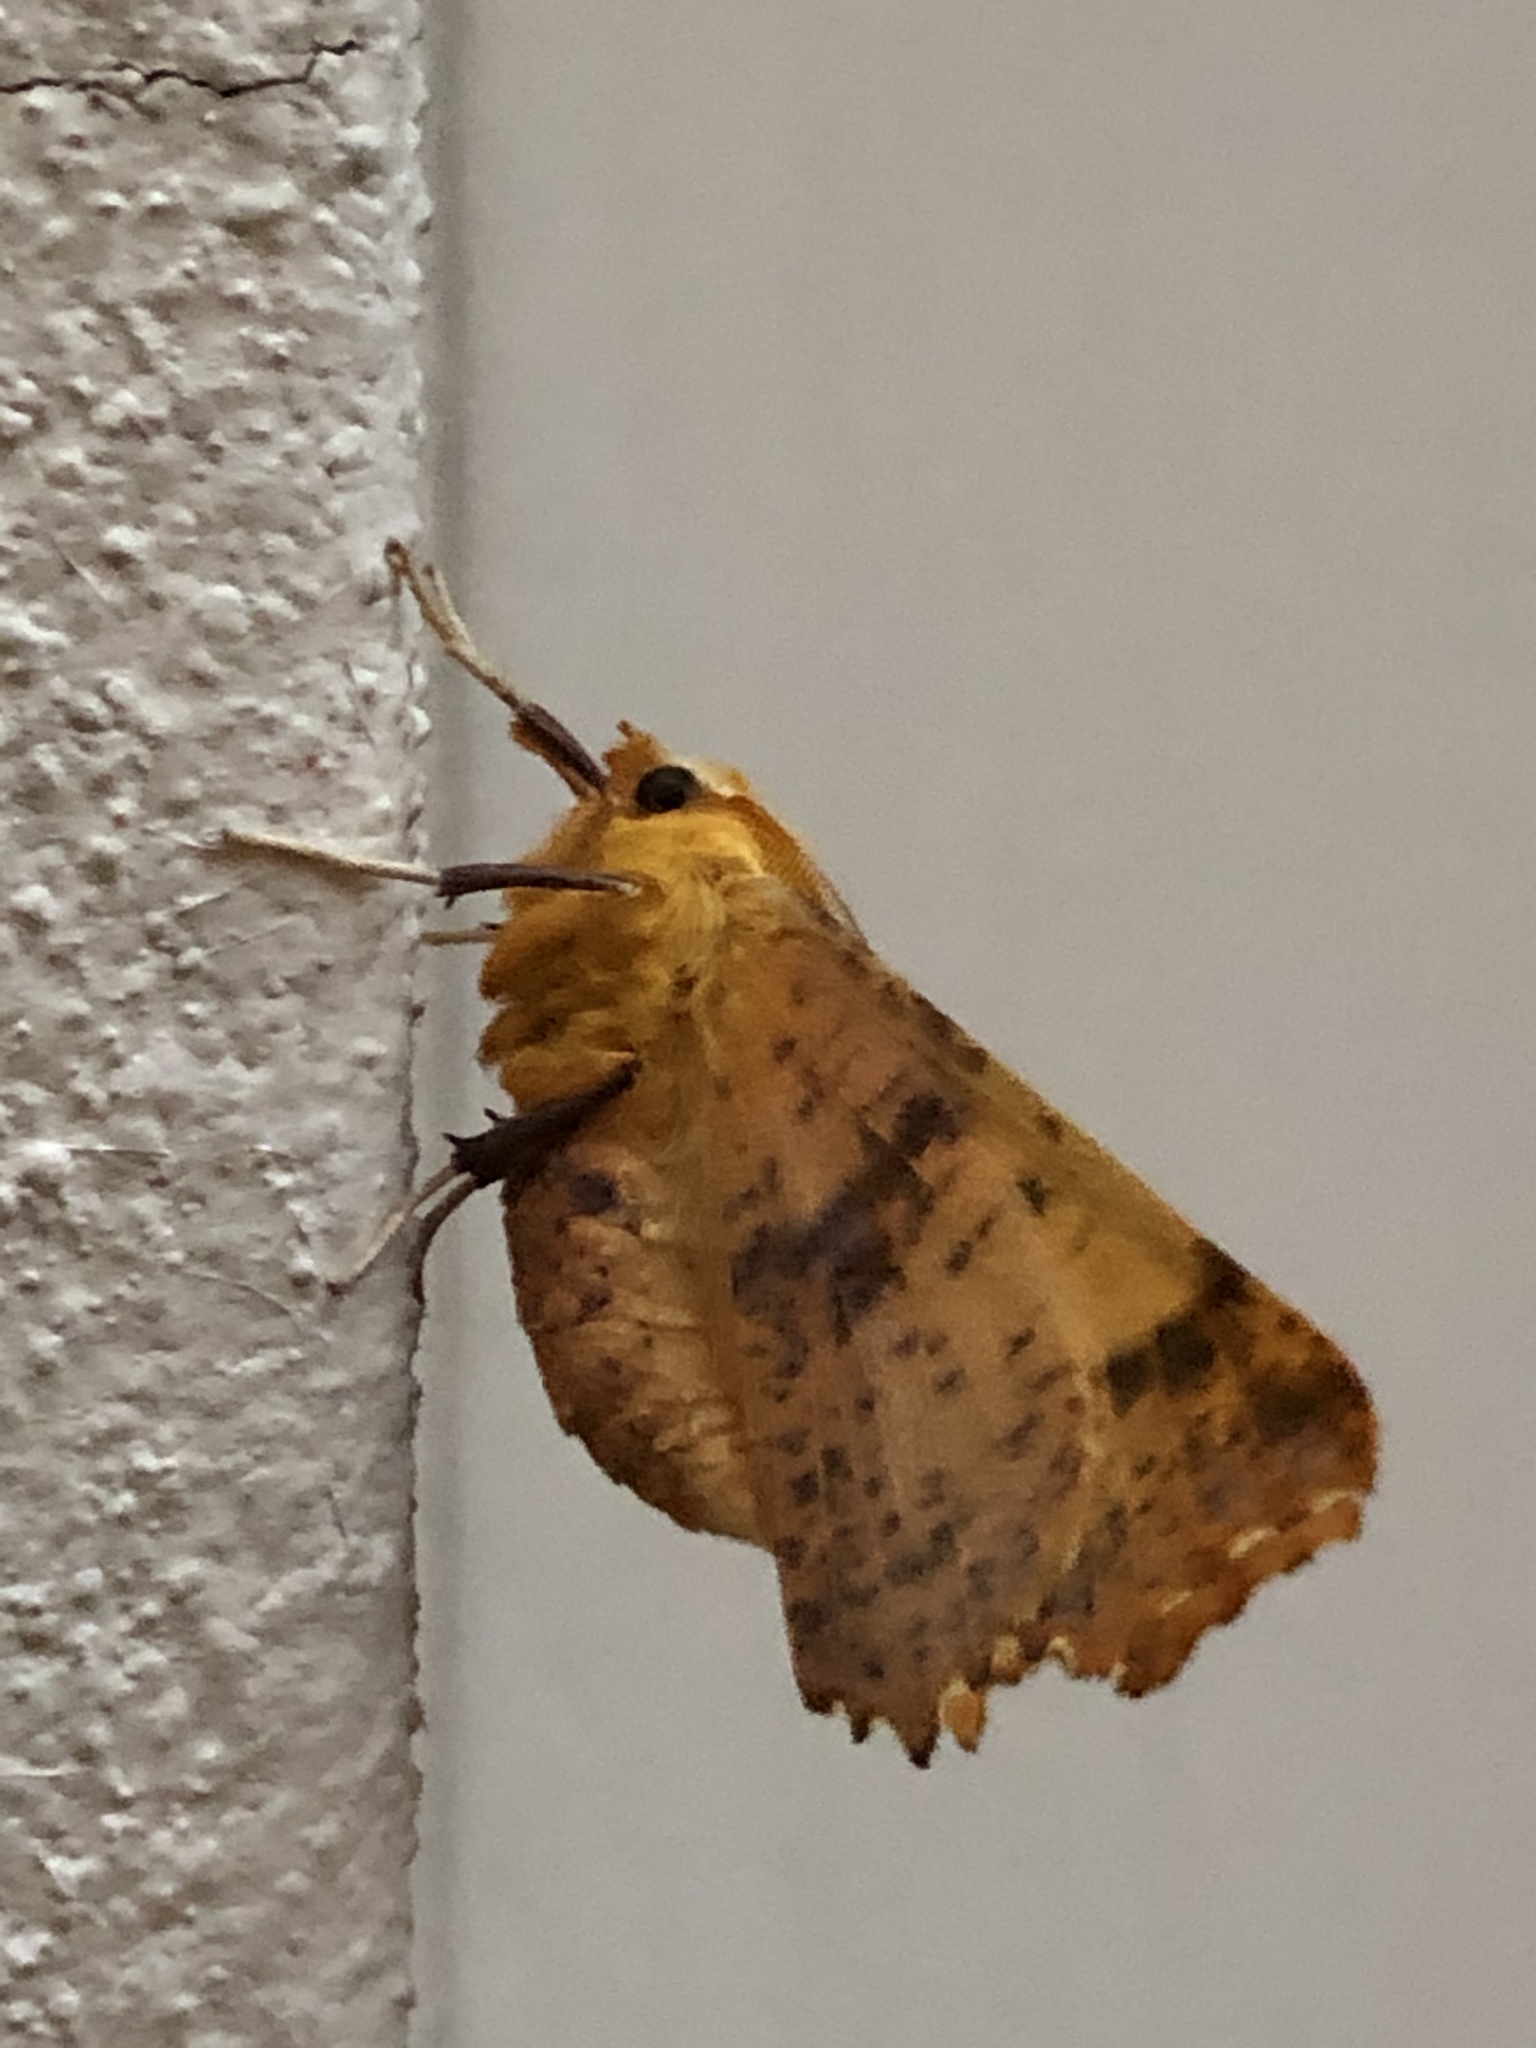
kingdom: Animalia
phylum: Arthropoda
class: Insecta
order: Lepidoptera
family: Geometridae
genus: Ennomos
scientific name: Ennomos autumnaria
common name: Large thorn
